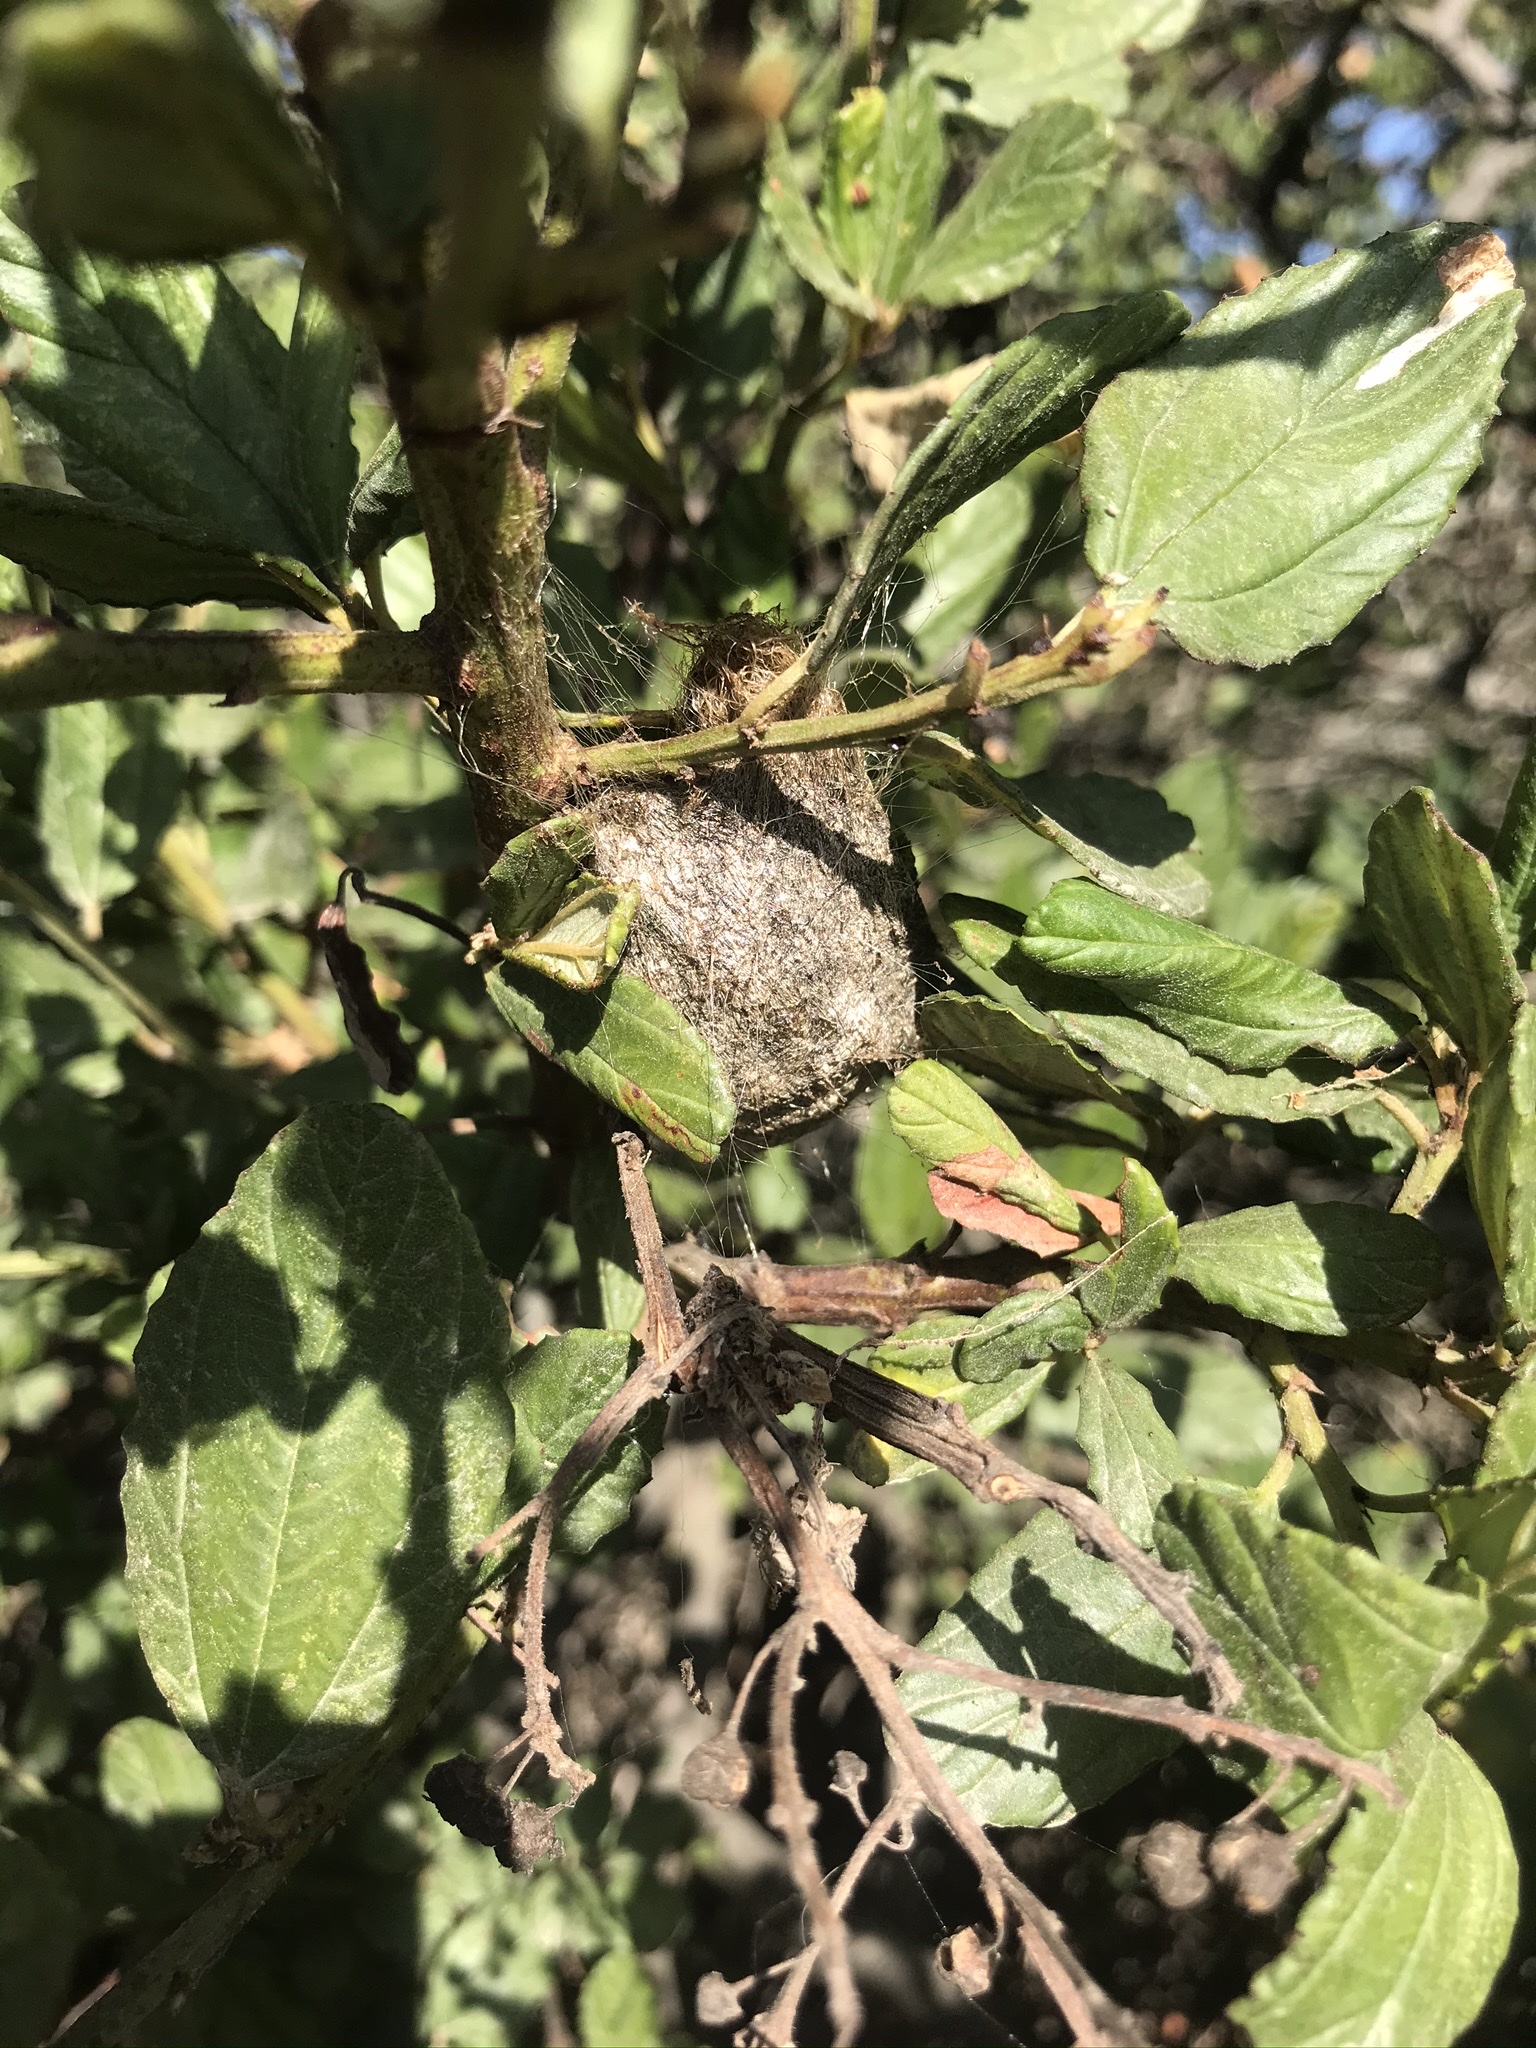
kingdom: Animalia
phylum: Arthropoda
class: Insecta
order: Lepidoptera
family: Saturniidae
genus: Hyalophora
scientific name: Hyalophora euryalus
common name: Ceanothus silkmoth
